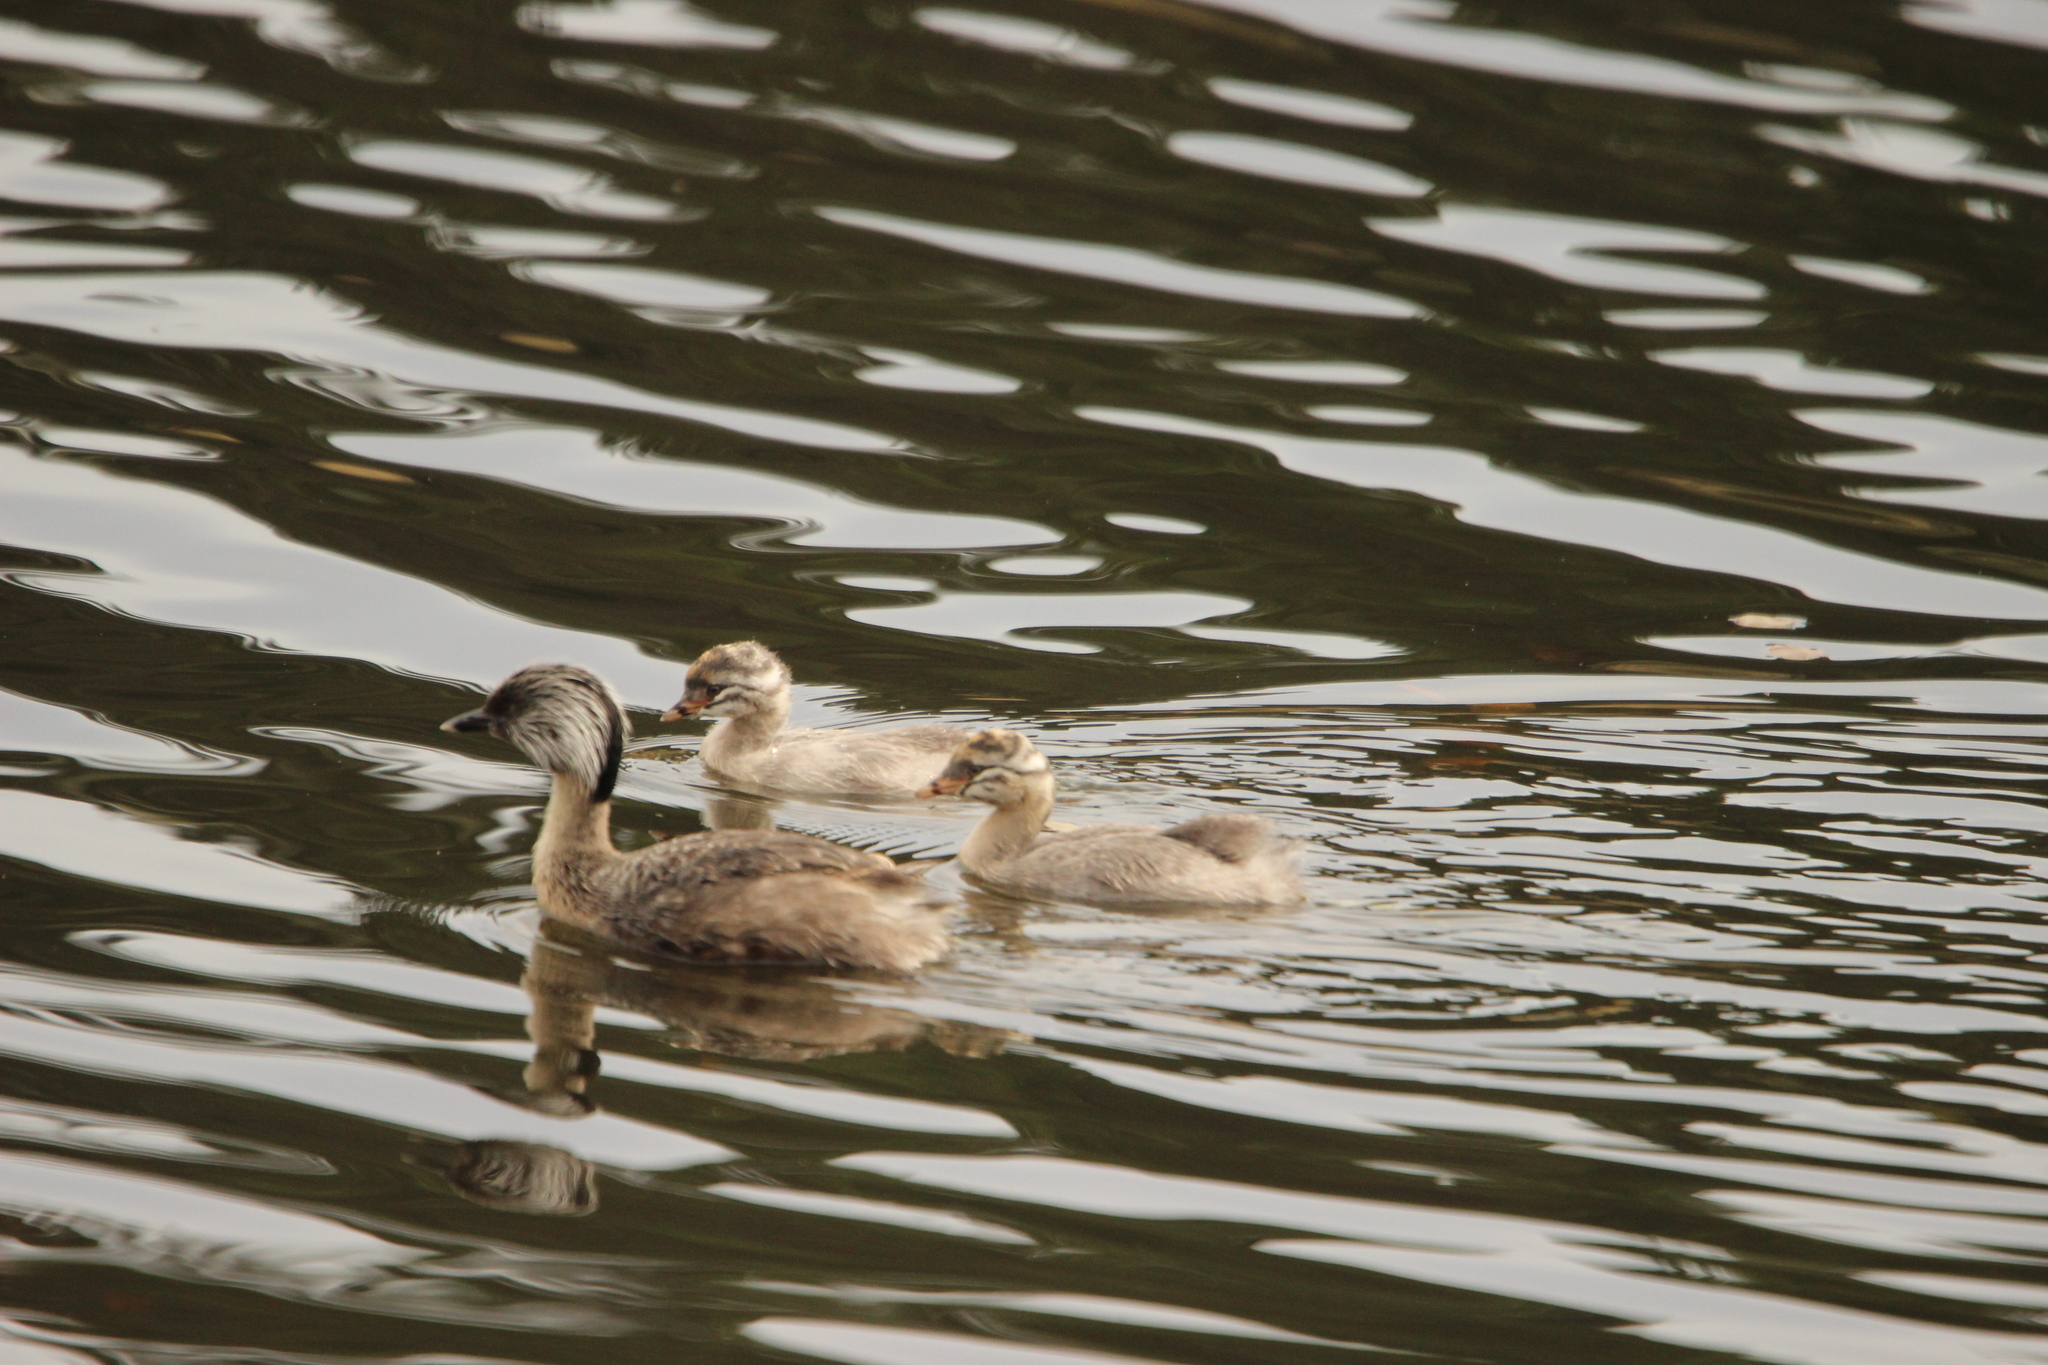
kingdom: Animalia
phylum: Chordata
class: Aves
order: Podicipediformes
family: Podicipedidae
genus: Poliocephalus
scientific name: Poliocephalus poliocephalus
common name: Hoary-headed grebe
